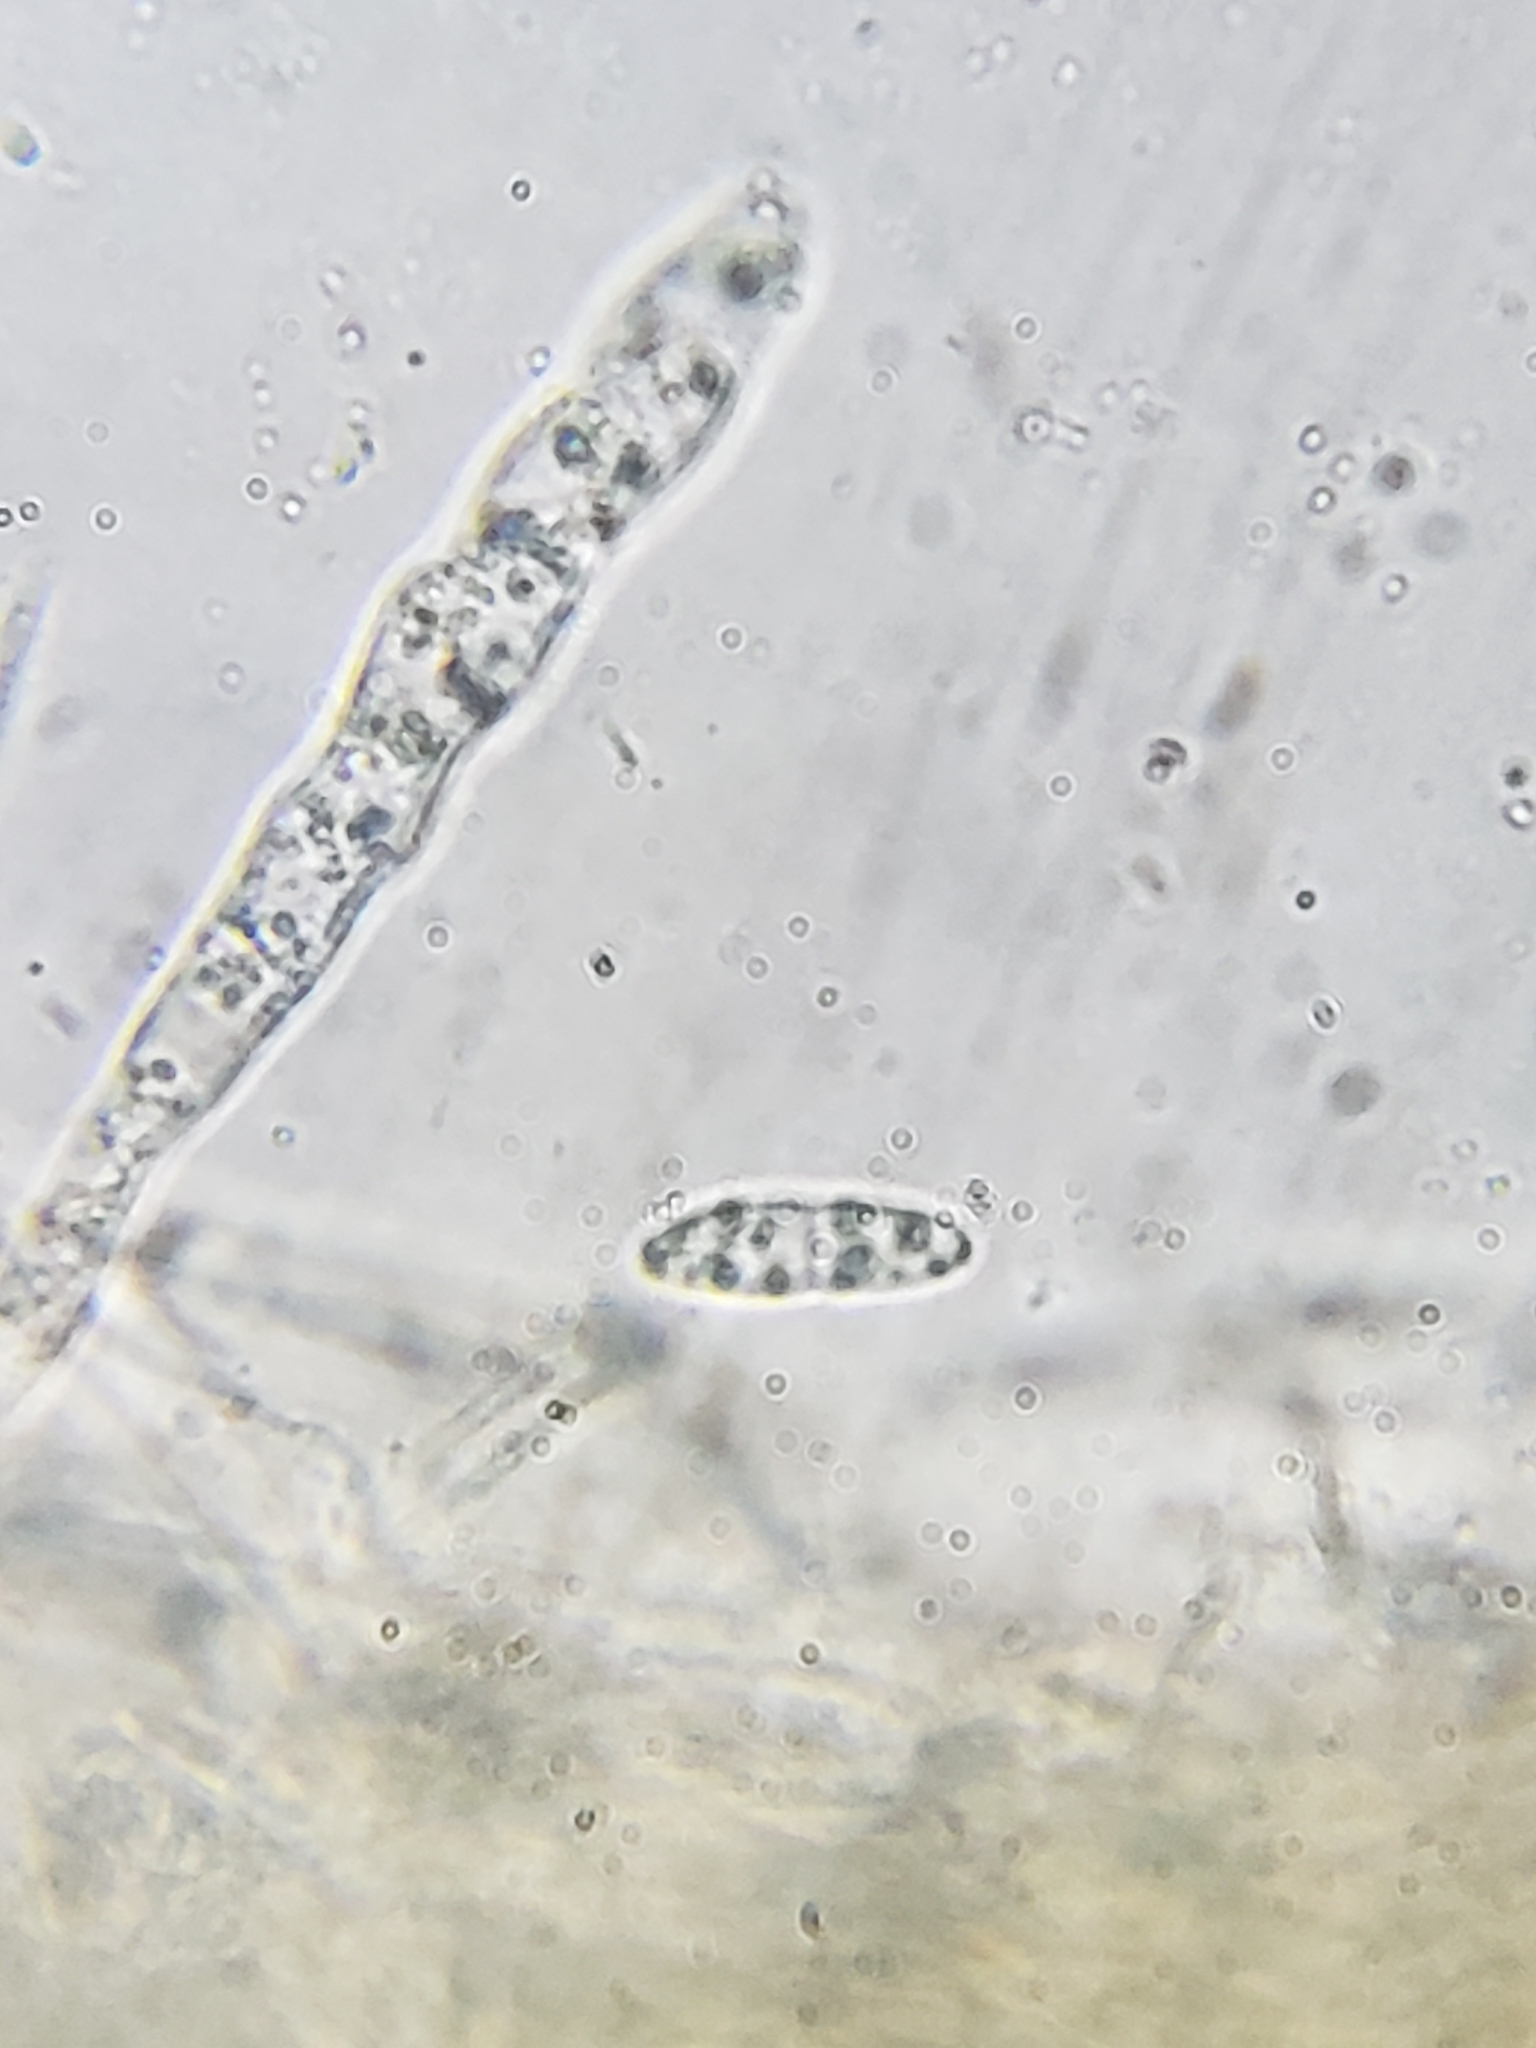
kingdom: Fungi
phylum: Ascomycota
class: Leotiomycetes
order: Helotiales
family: Pezizellaceae
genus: Calycina
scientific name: Calycina citrina
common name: Yellow fairy cups
